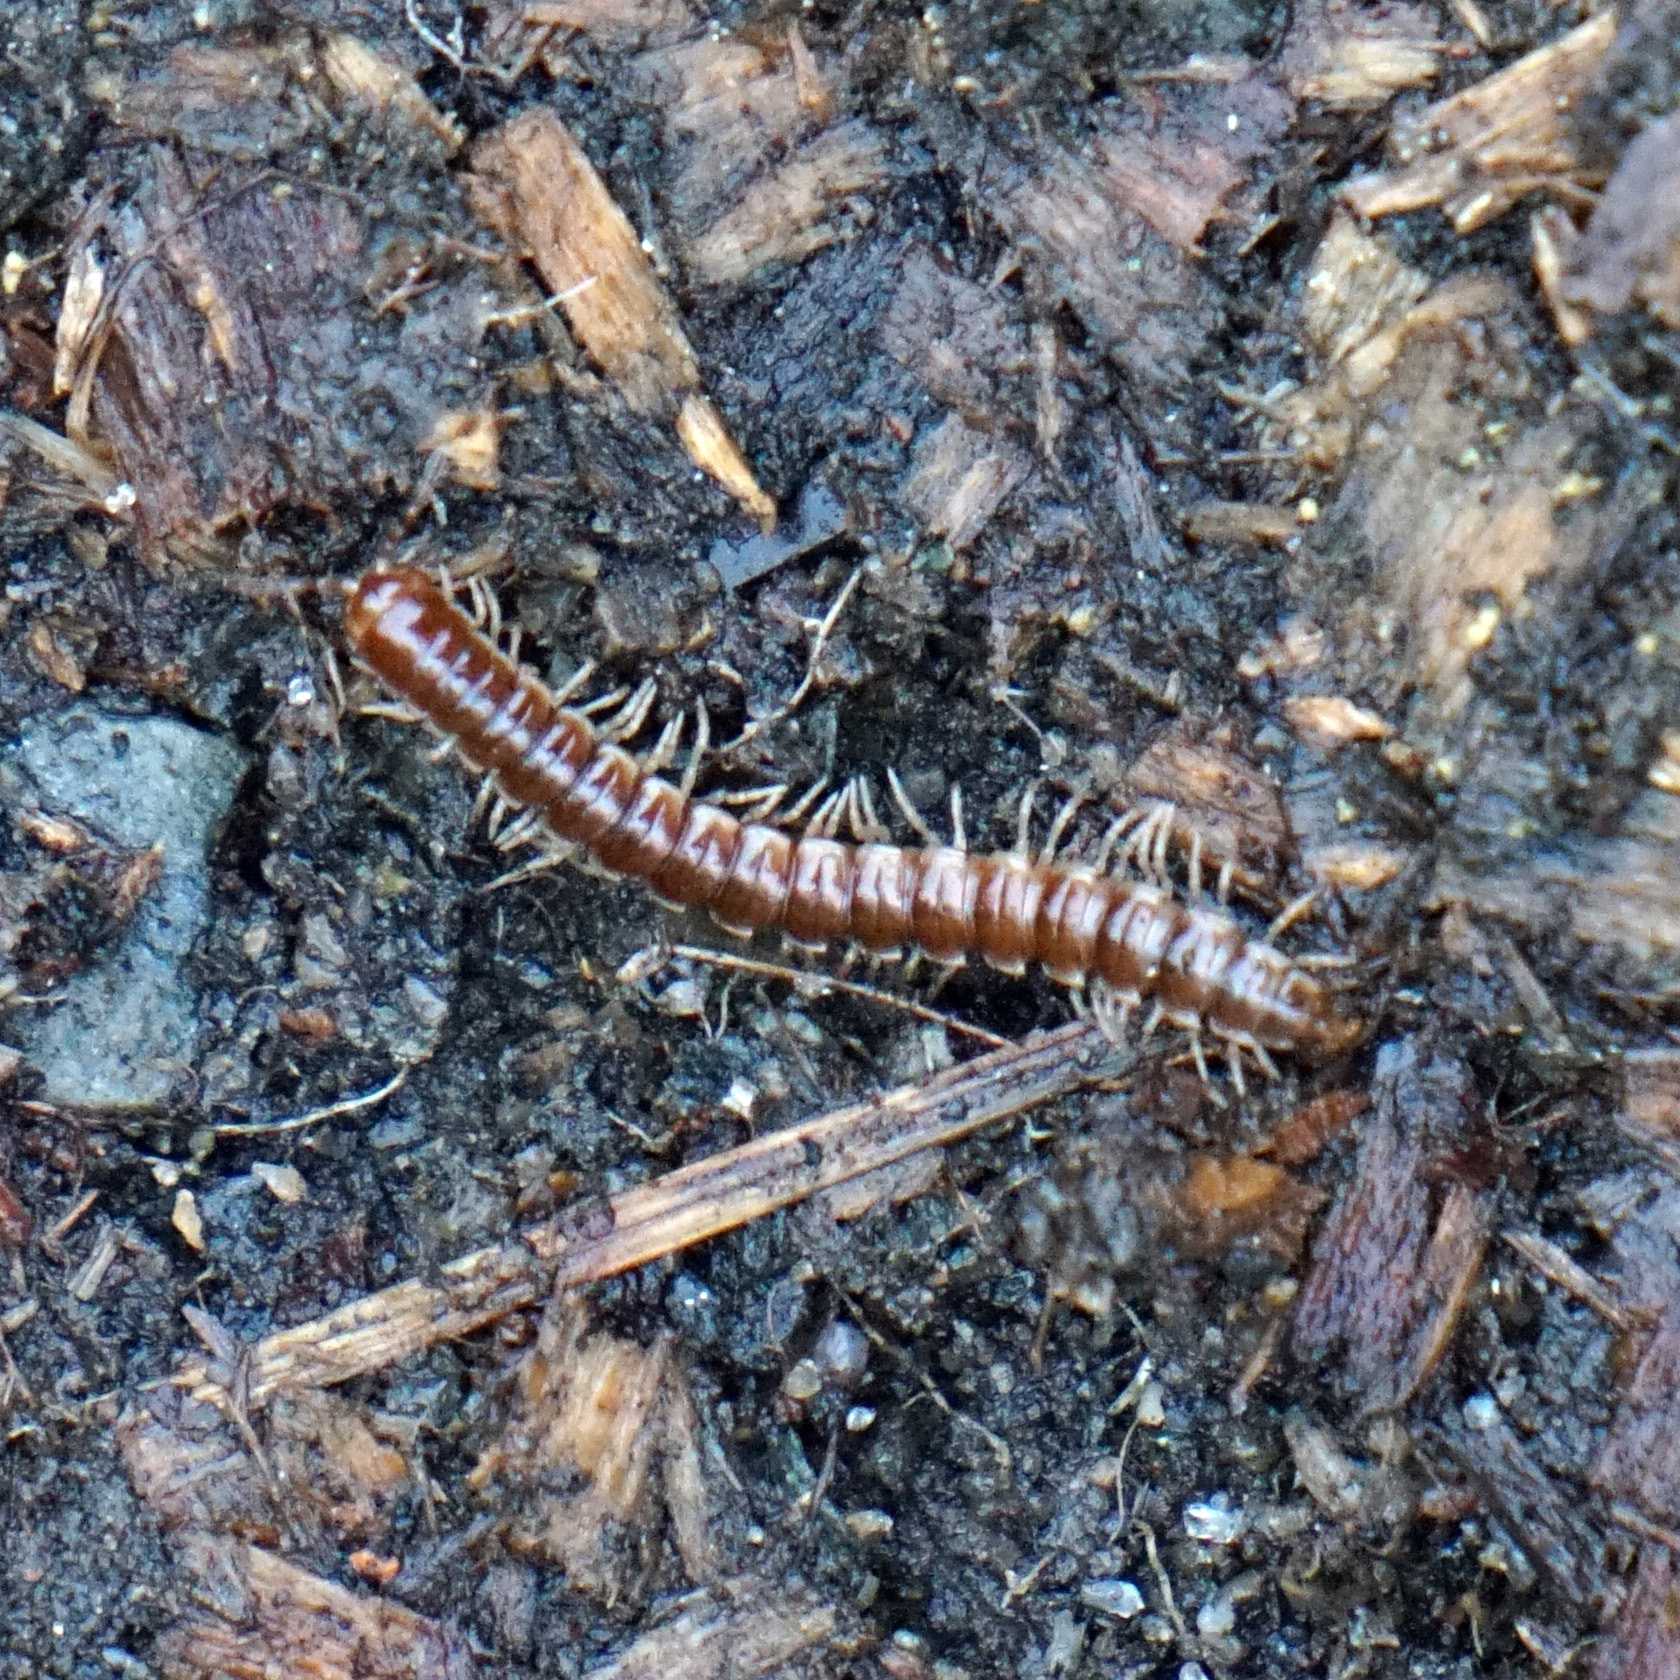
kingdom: Animalia
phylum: Arthropoda
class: Diplopoda
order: Polydesmida
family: Paradoxosomatidae
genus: Oxidus
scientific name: Oxidus gracilis
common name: Greenhouse millipede
